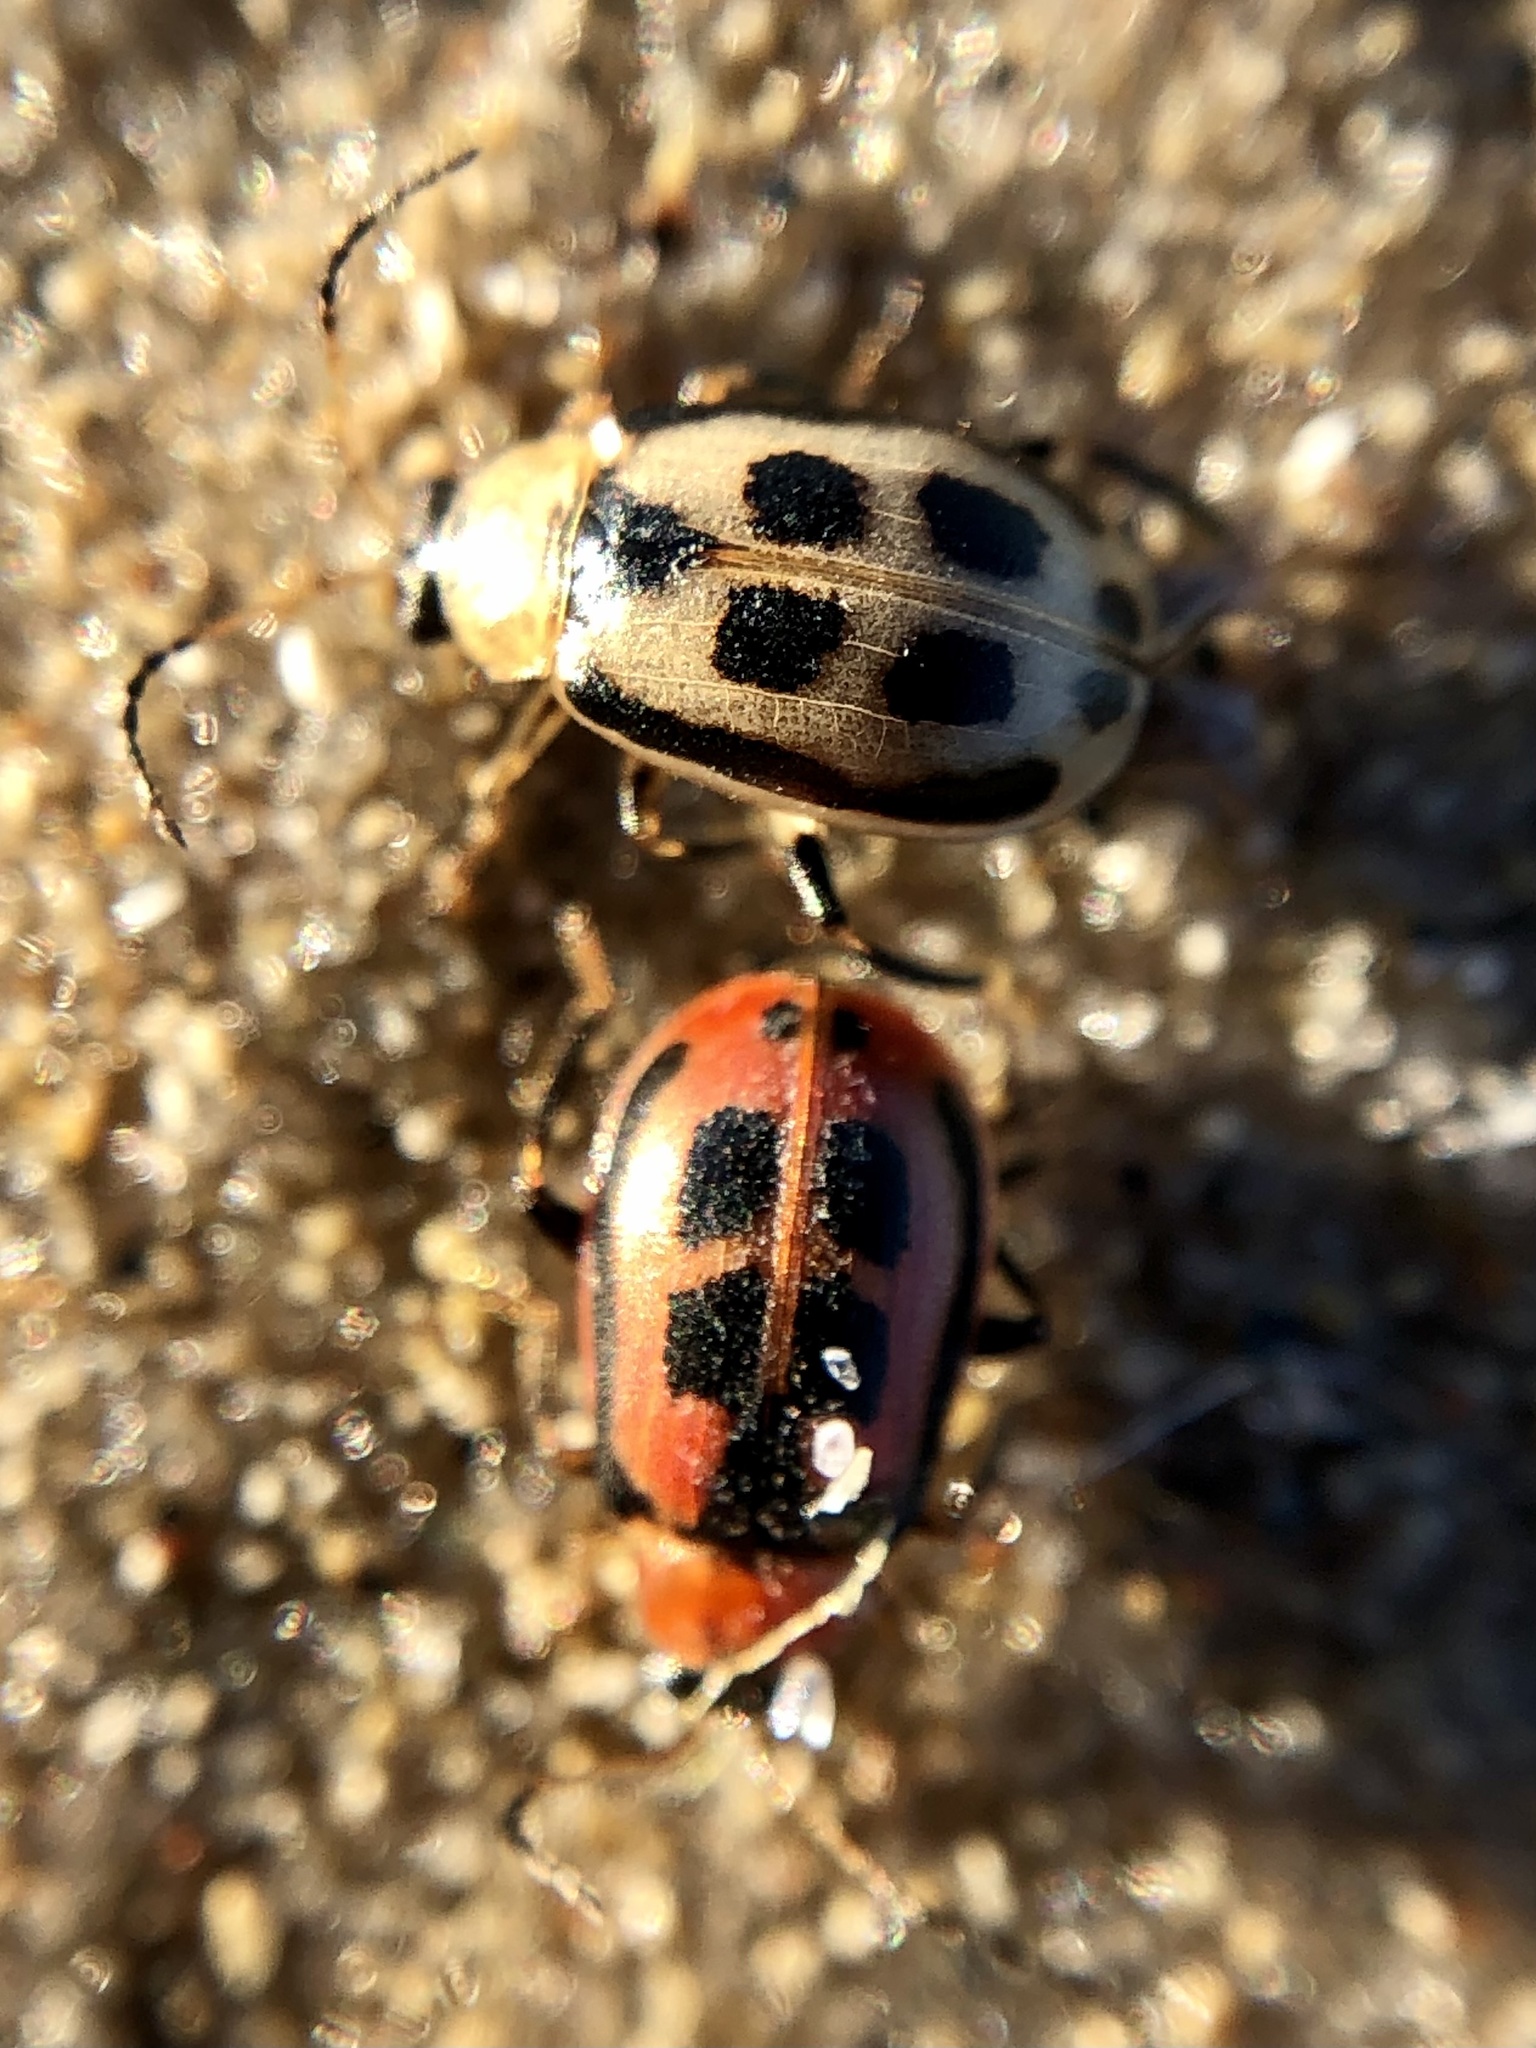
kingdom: Animalia
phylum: Arthropoda
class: Insecta
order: Coleoptera
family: Chrysomelidae
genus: Cerotoma
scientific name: Cerotoma trifurcata
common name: Bean leaf beetle
